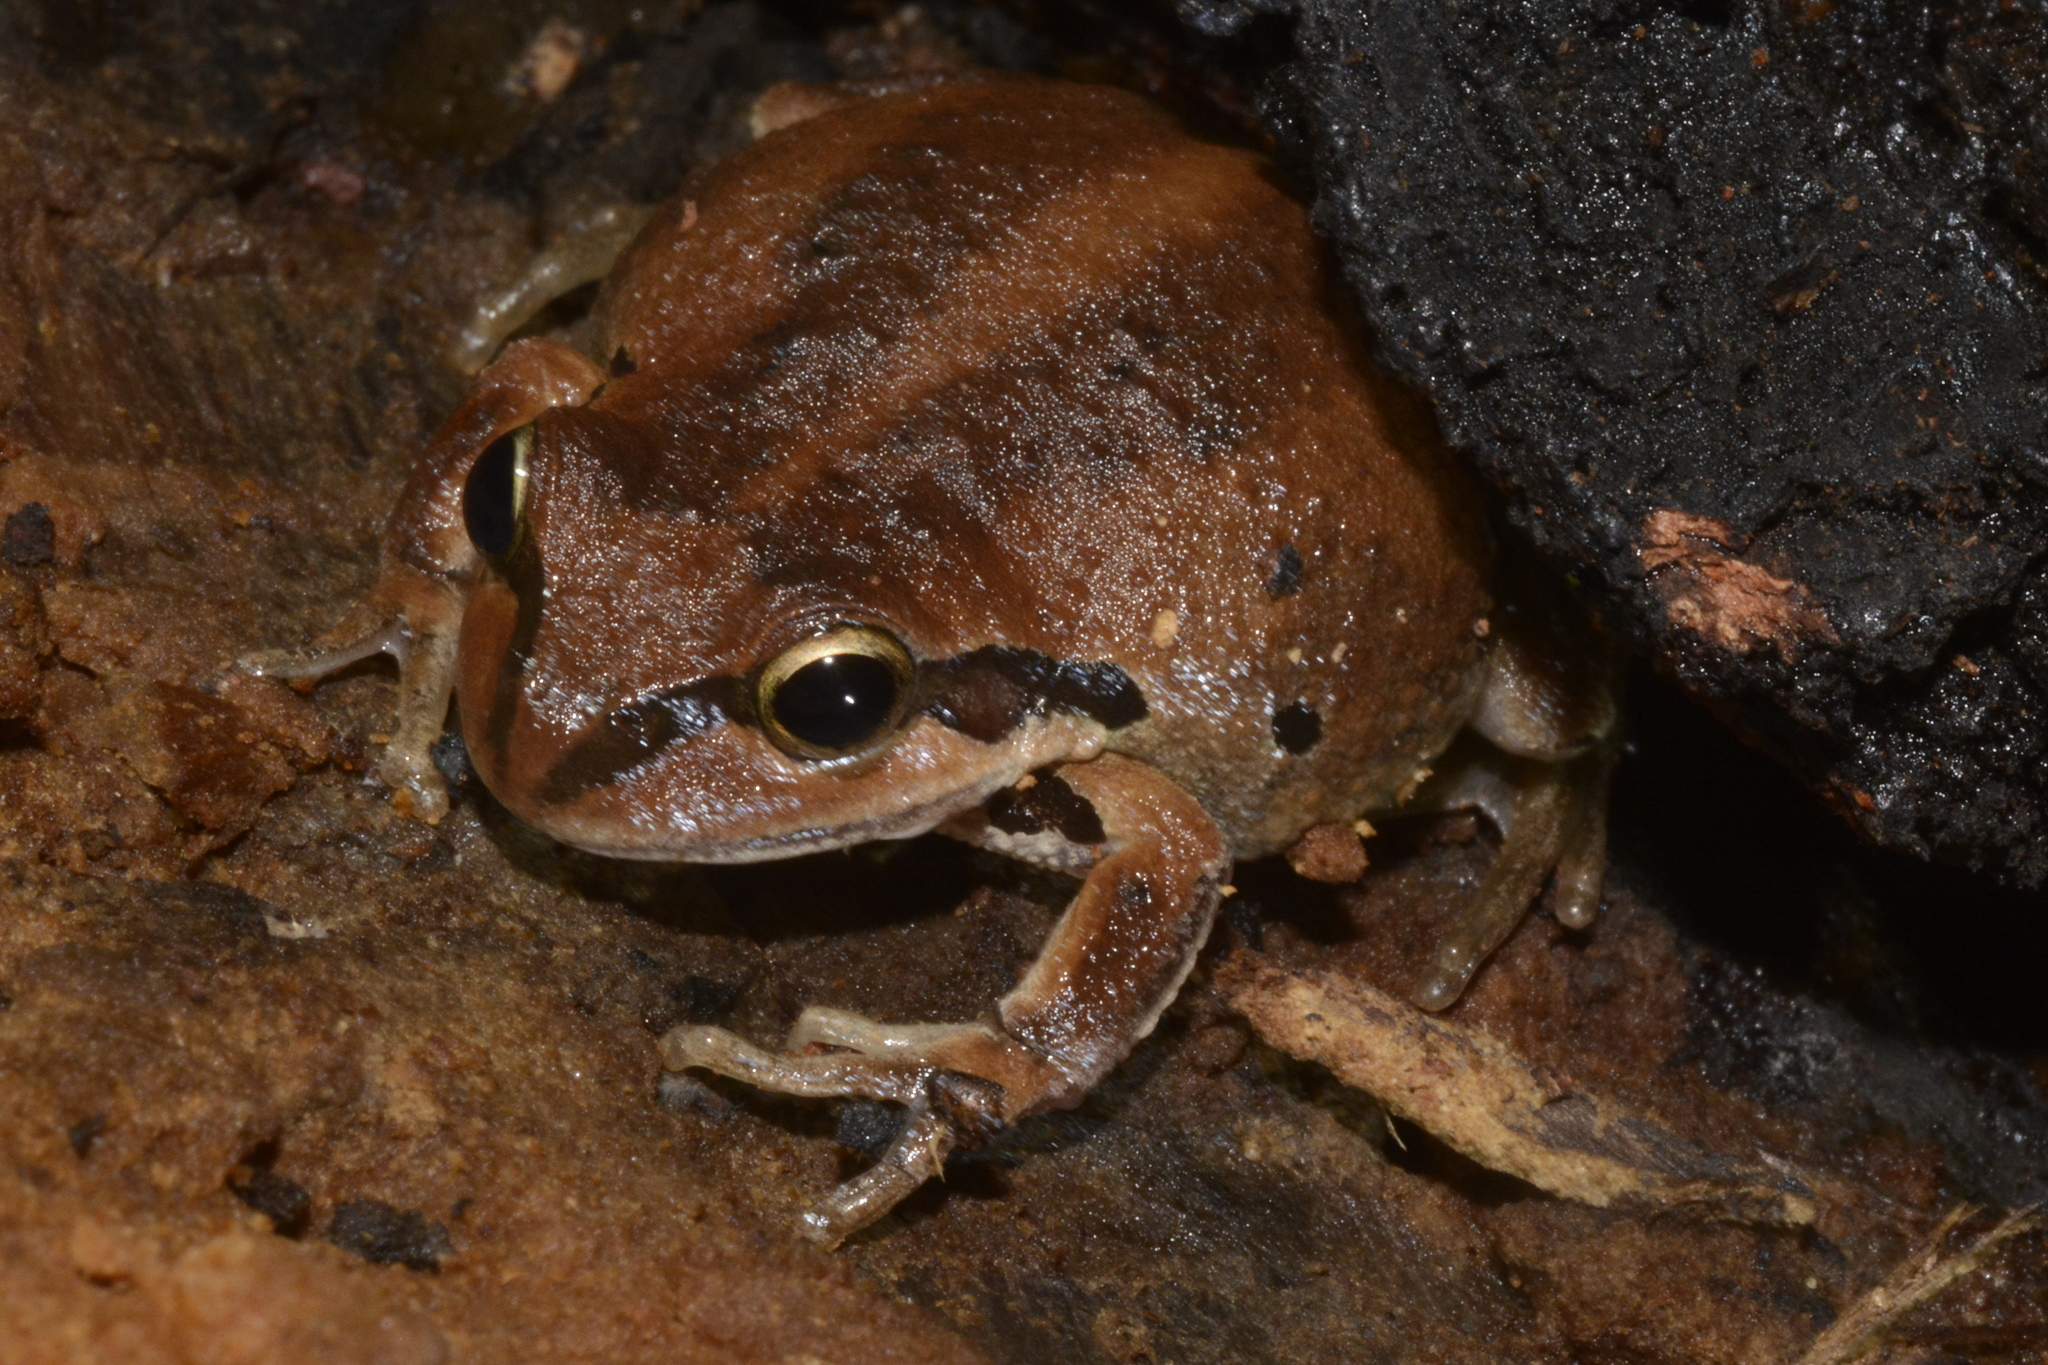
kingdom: Animalia
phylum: Chordata
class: Amphibia
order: Anura
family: Pelodryadidae
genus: Litoria
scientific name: Litoria verreauxii
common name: Alpine tree frog
